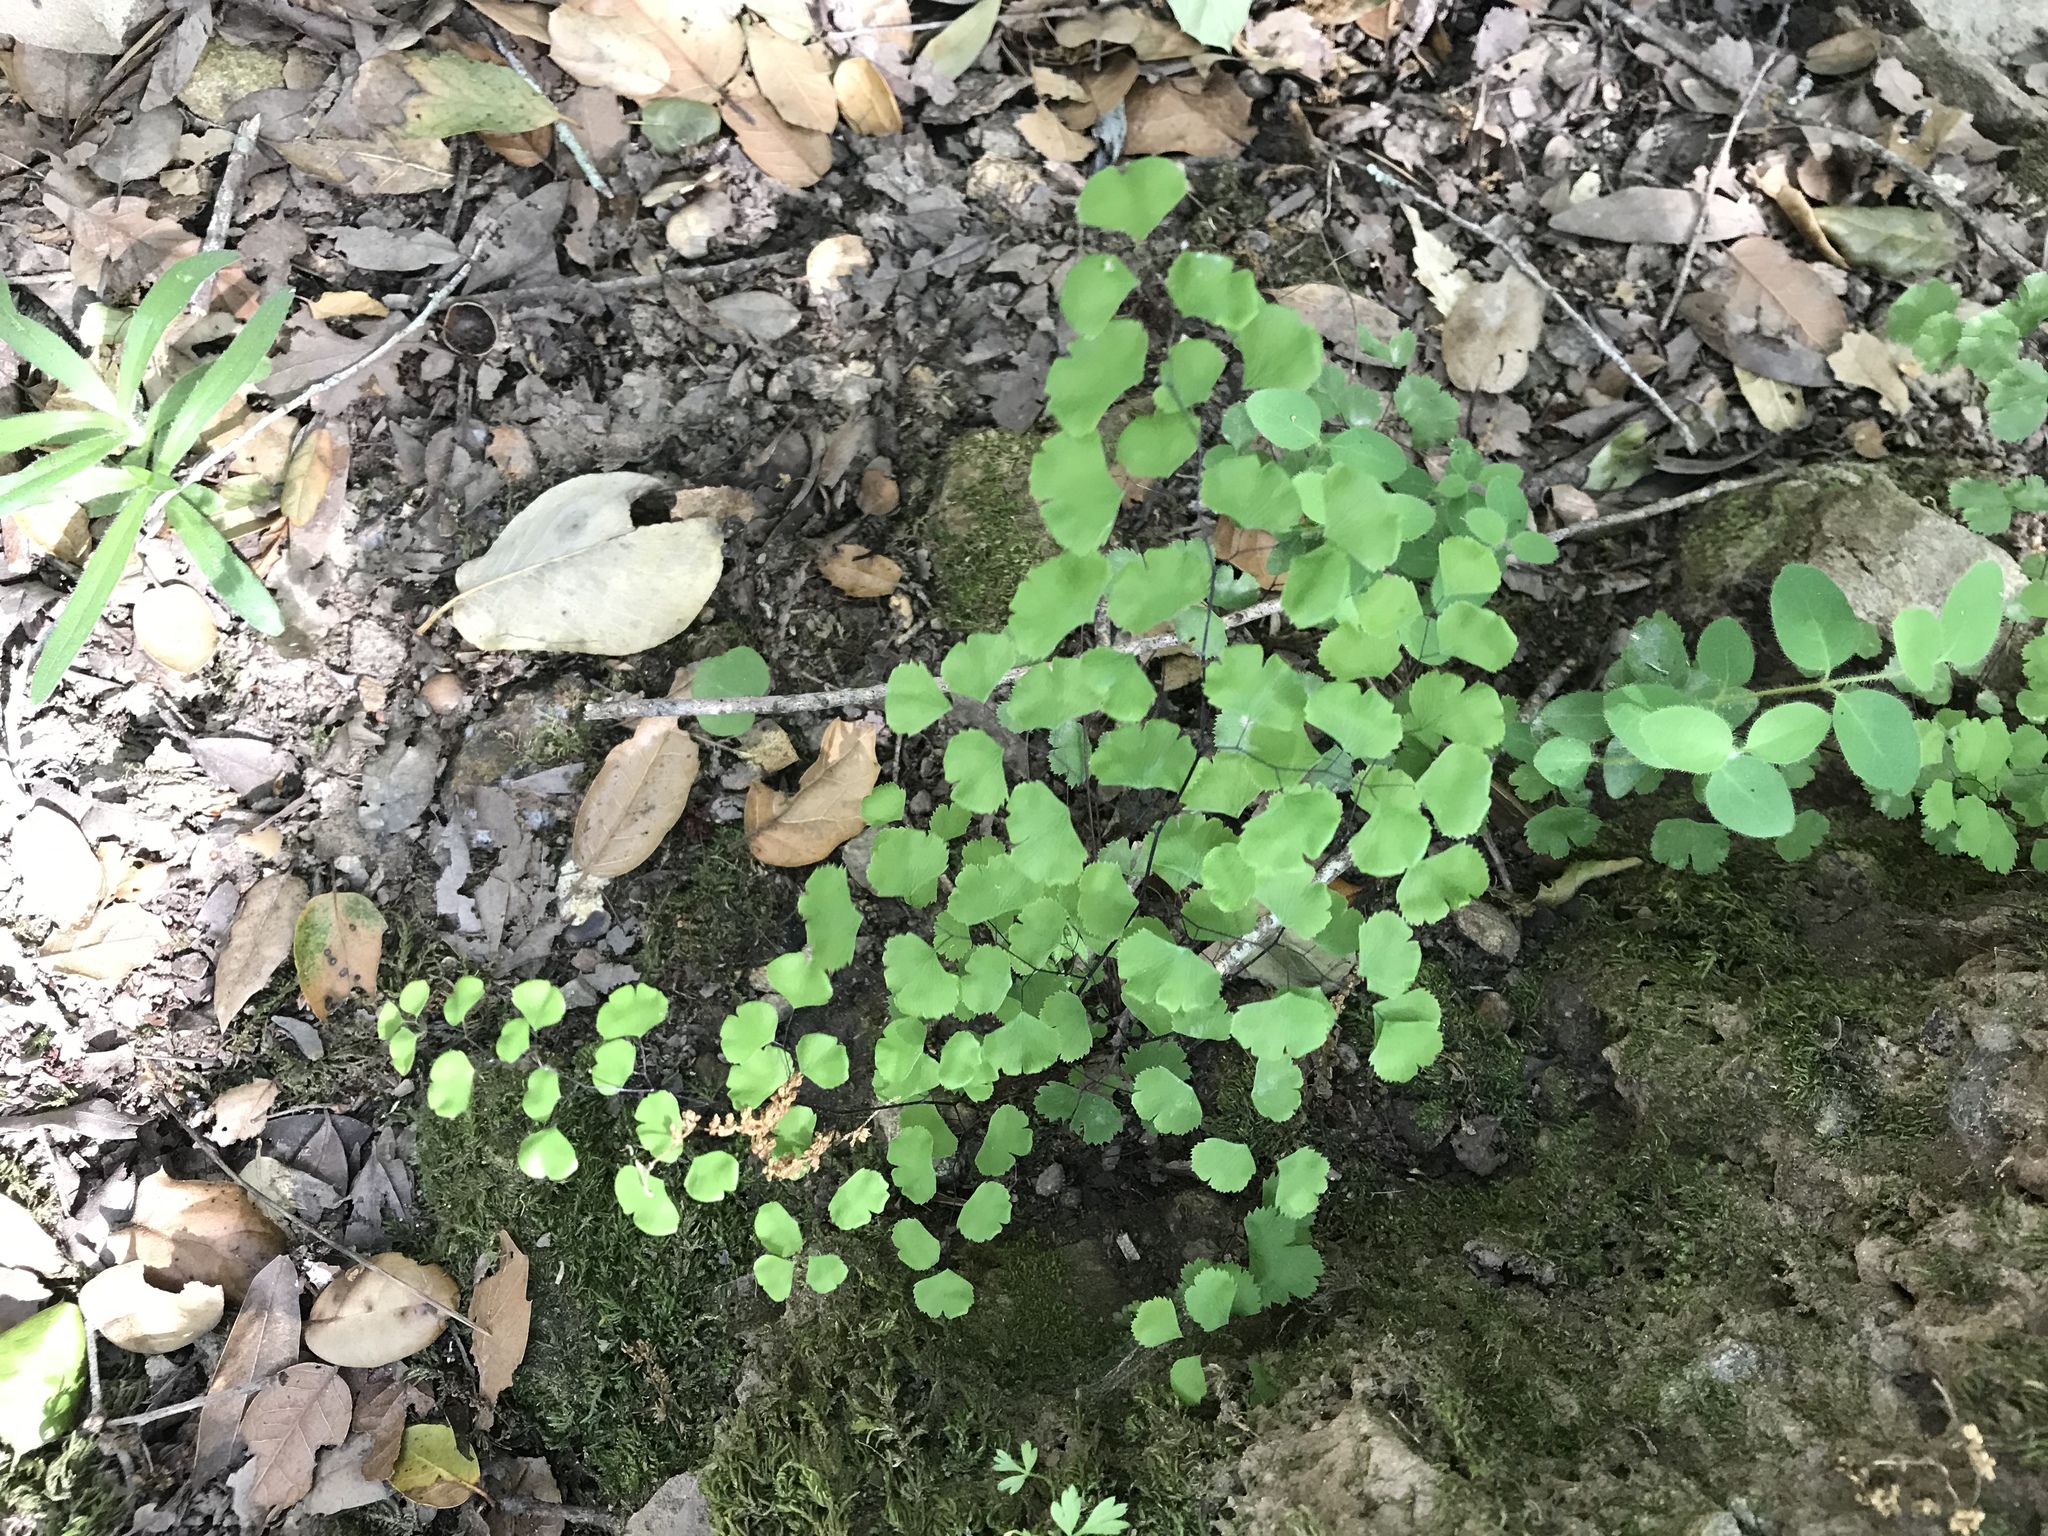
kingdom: Plantae
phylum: Tracheophyta
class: Polypodiopsida
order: Polypodiales
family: Pteridaceae
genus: Adiantum
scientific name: Adiantum jordanii
